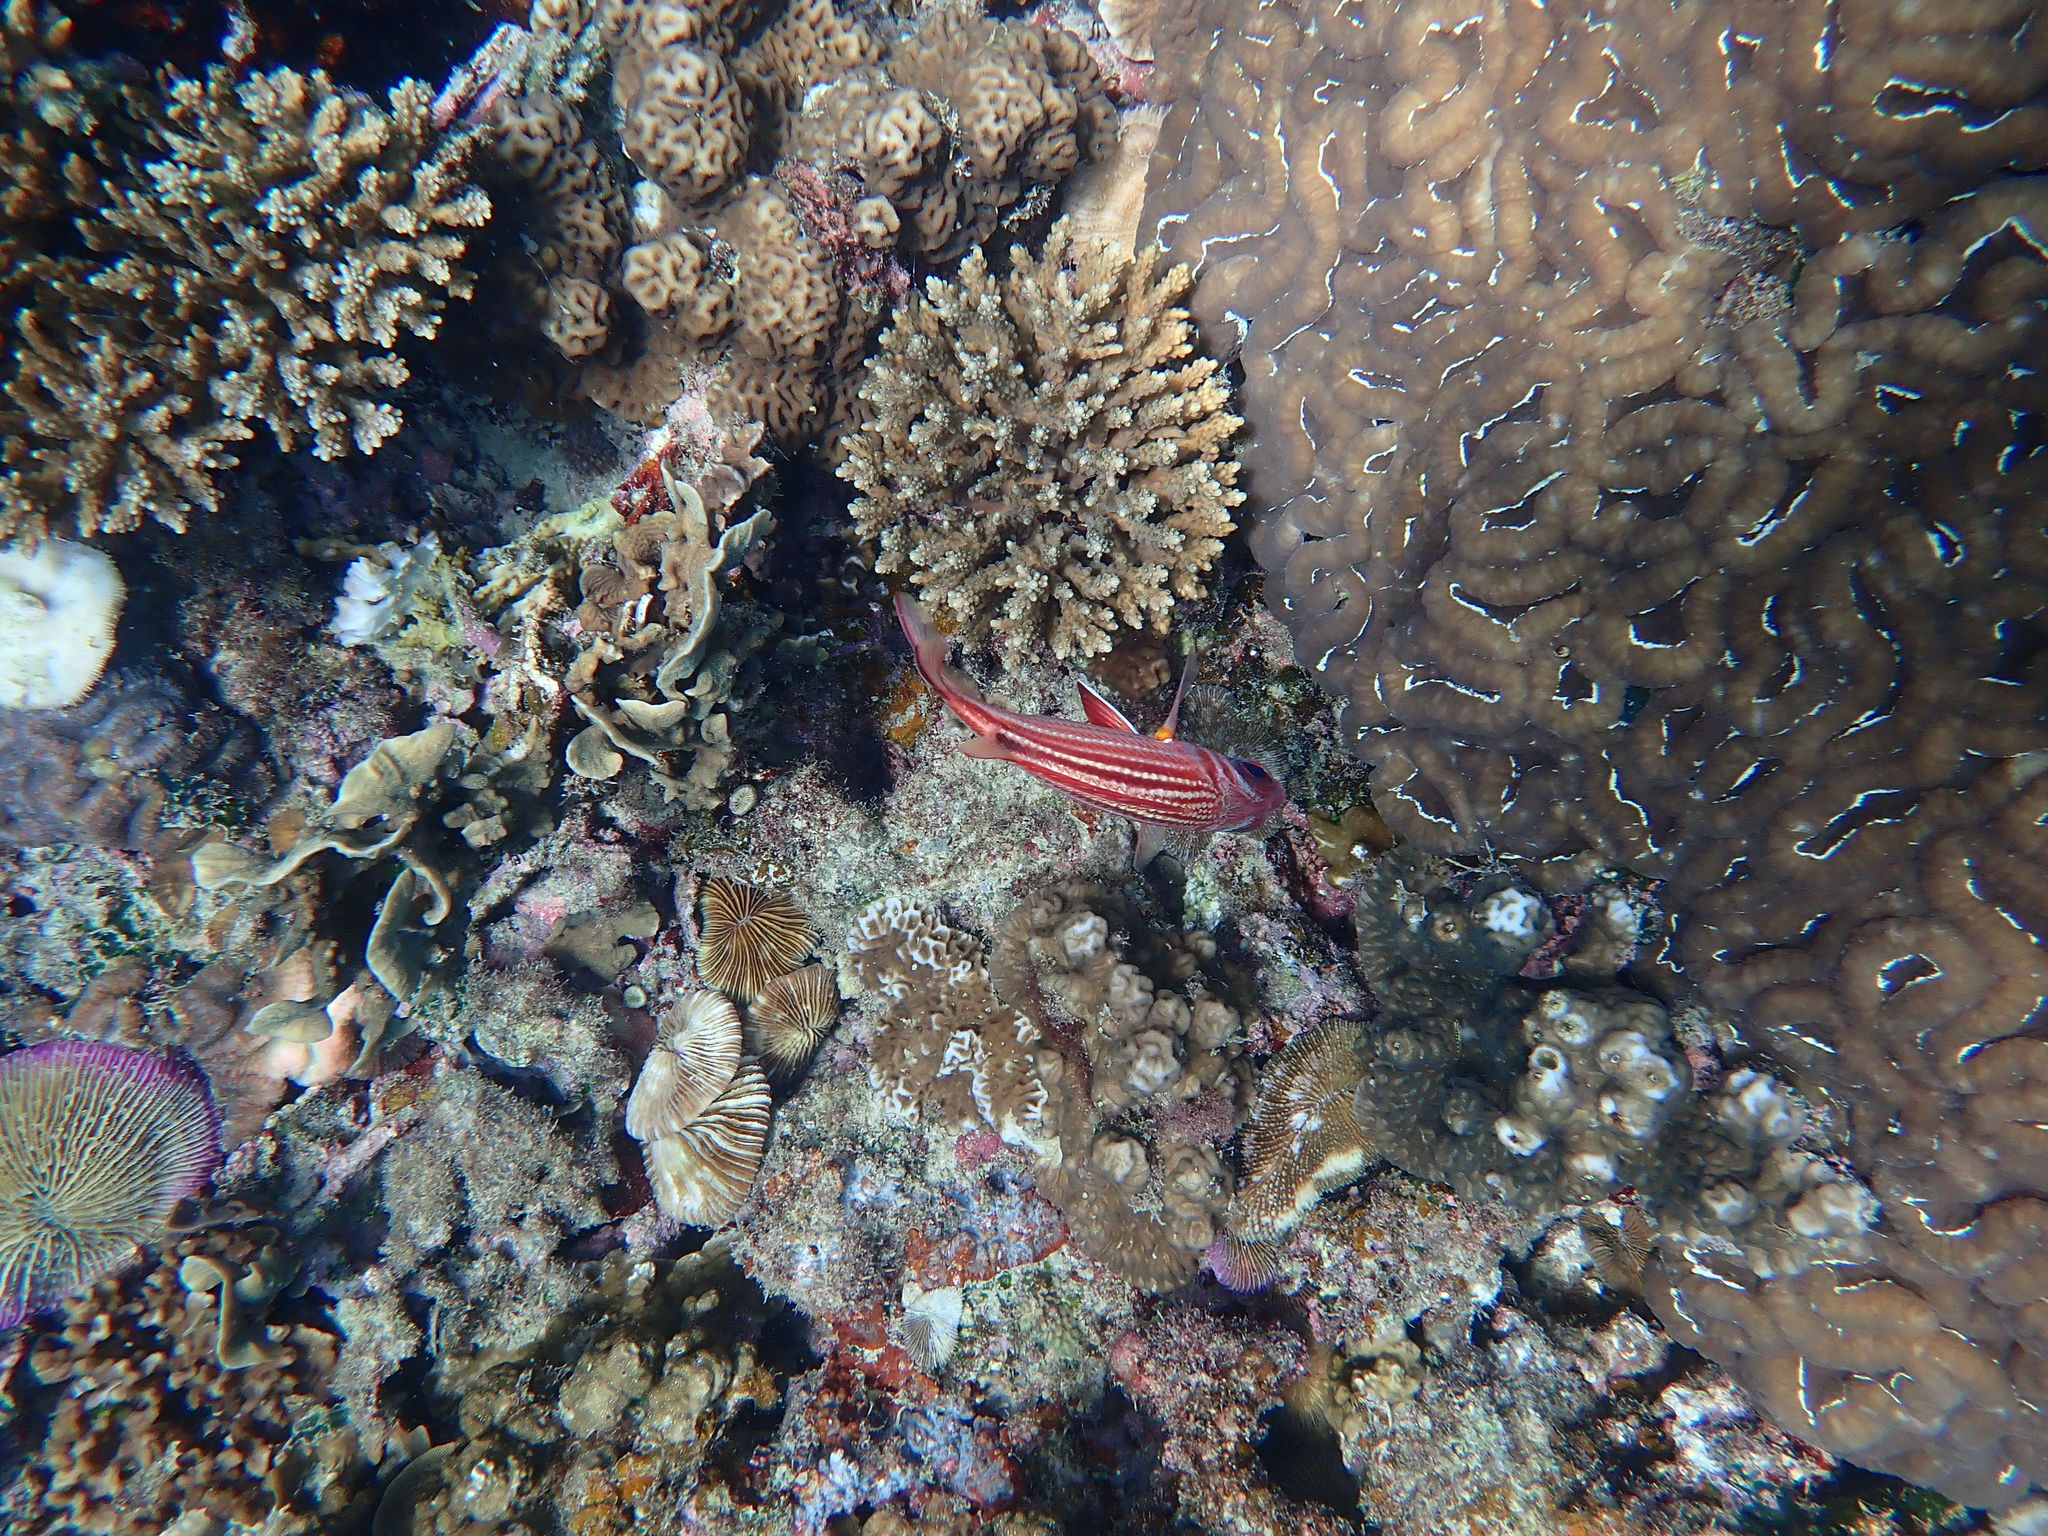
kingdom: Animalia
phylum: Chordata
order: Beryciformes
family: Holocentridae
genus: Sargocentron
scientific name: Sargocentron rubrum
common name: Redcoat
